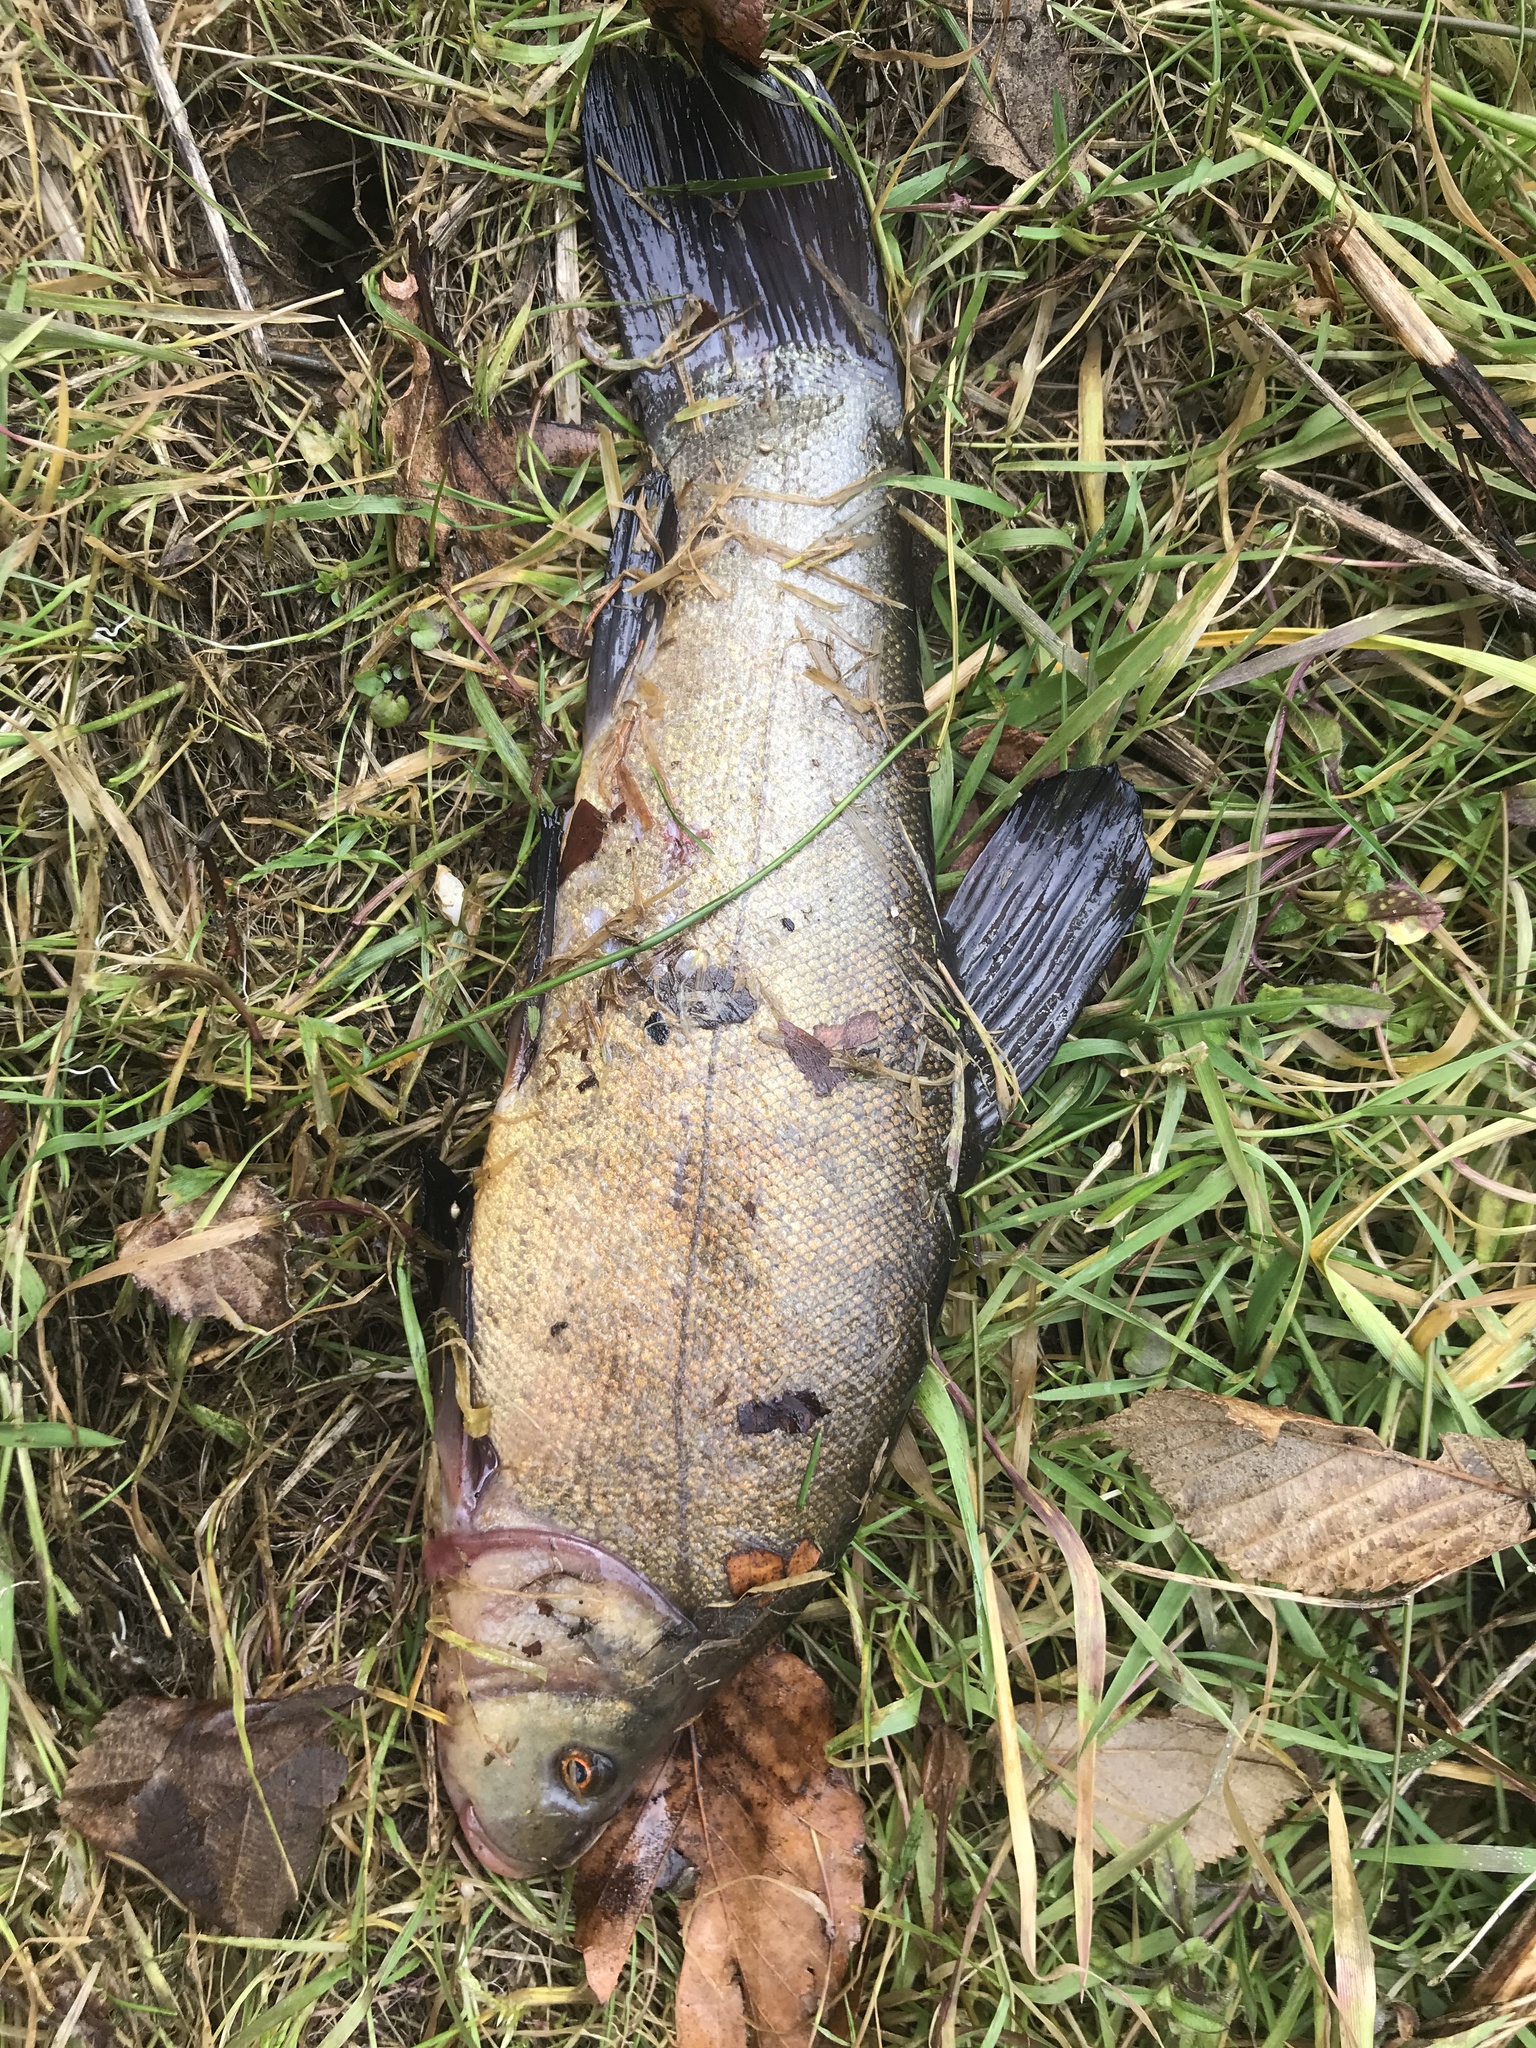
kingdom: Animalia
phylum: Chordata
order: Cypriniformes
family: Cyprinidae
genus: Tinca
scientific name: Tinca tinca
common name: Tench
